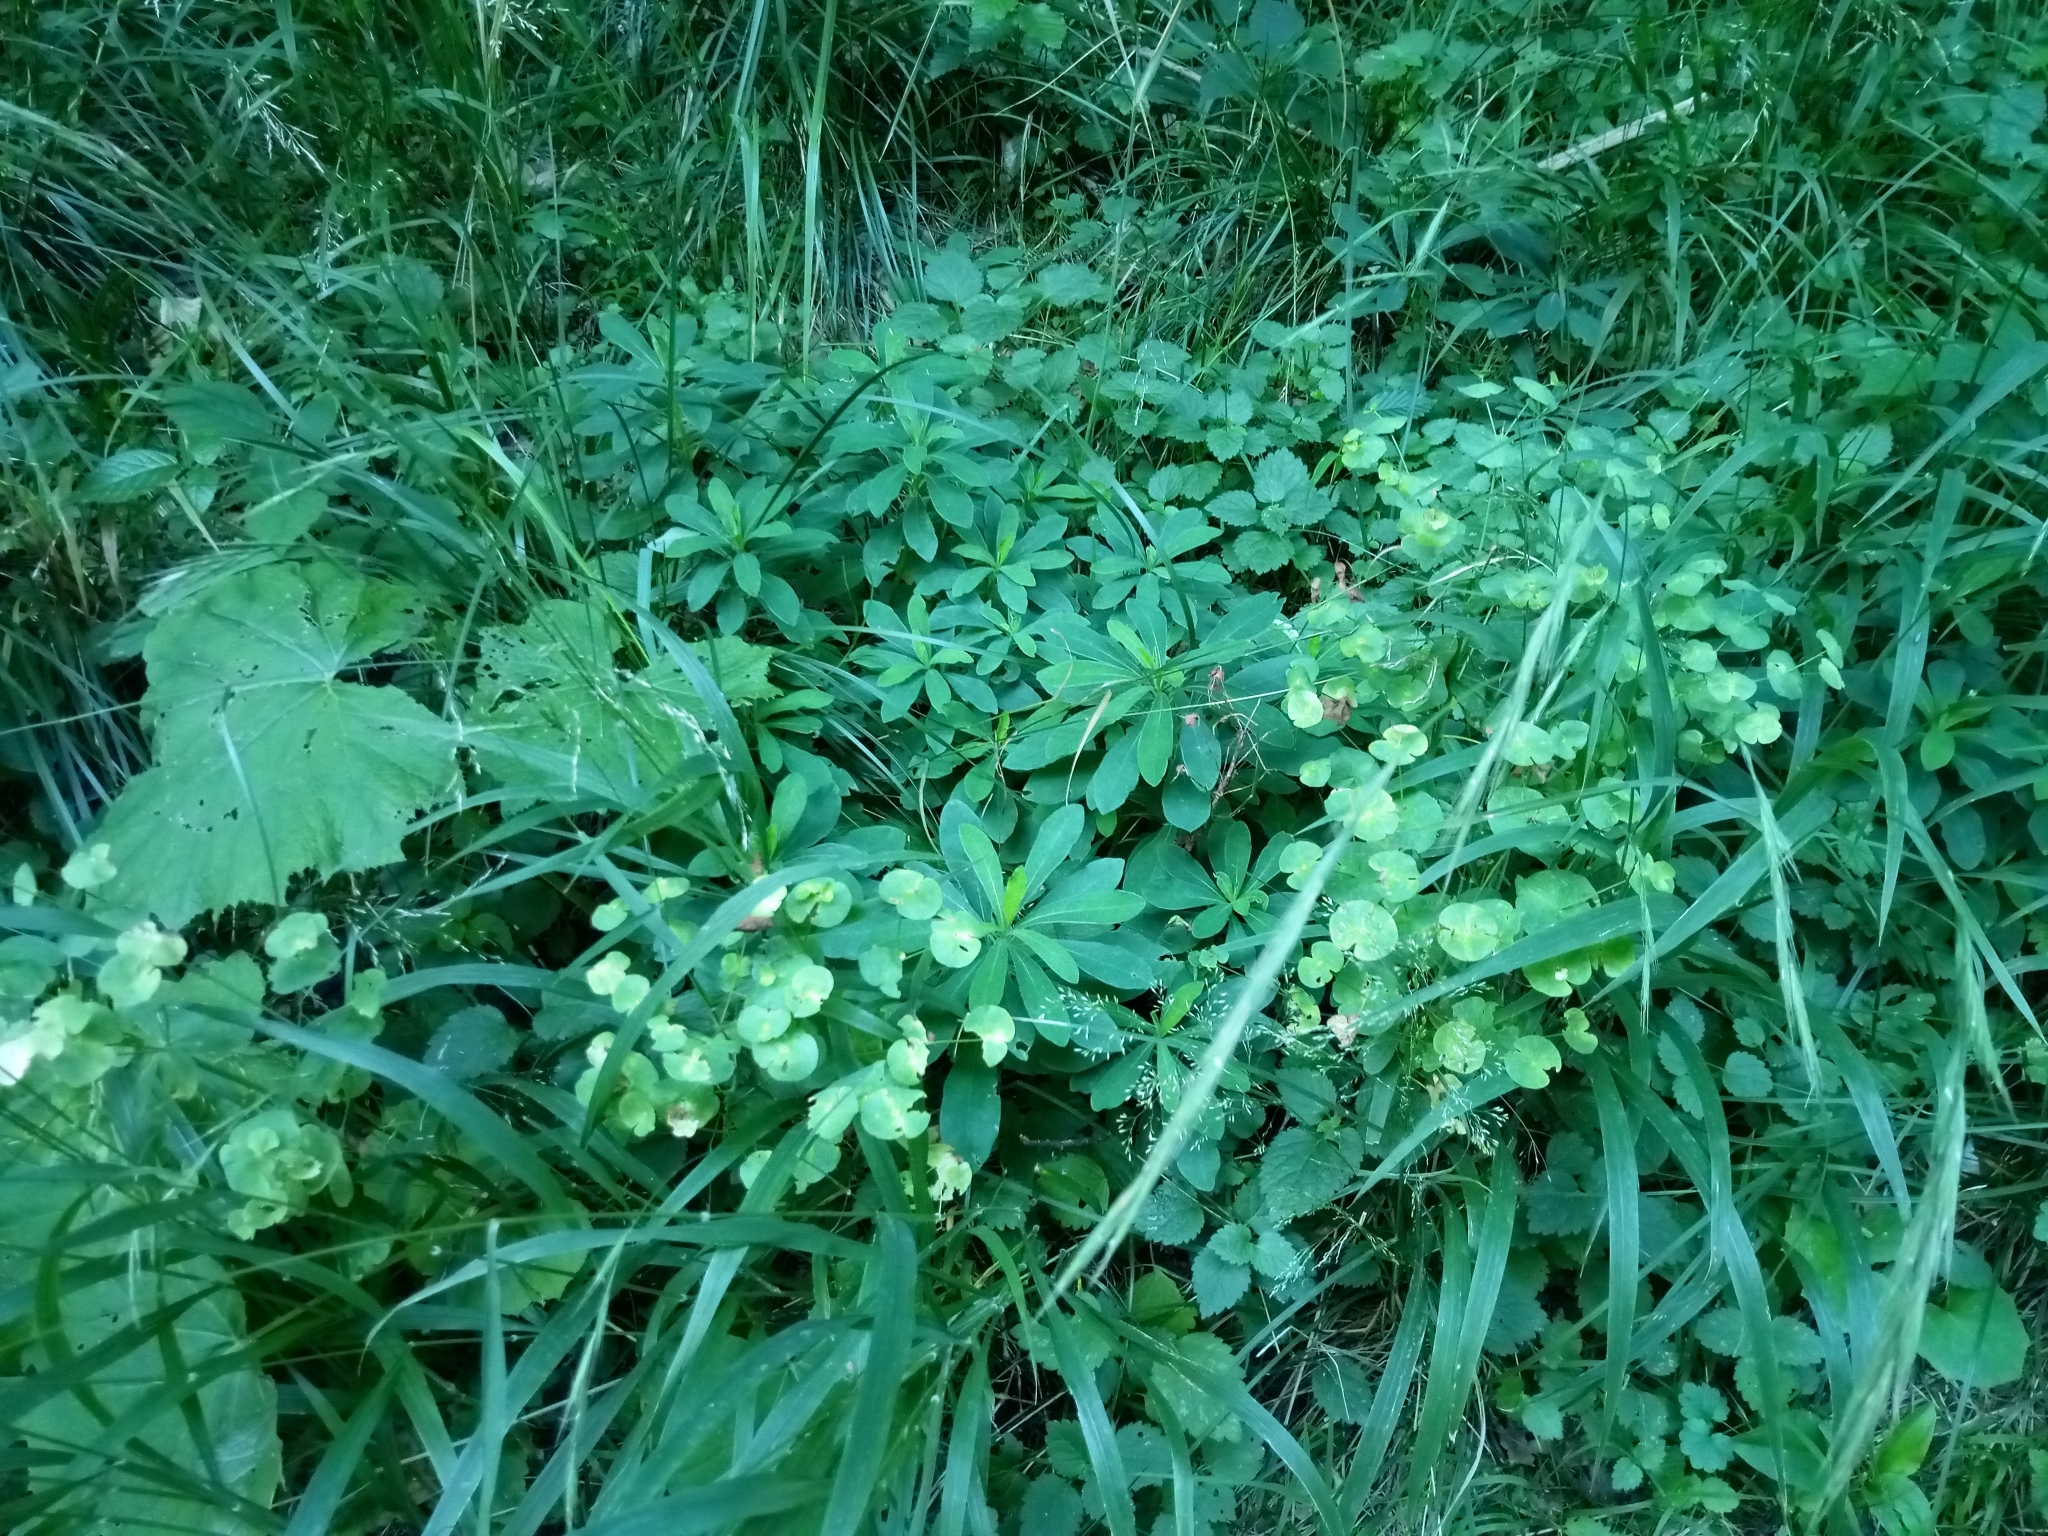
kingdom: Plantae
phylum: Tracheophyta
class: Magnoliopsida
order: Malpighiales
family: Euphorbiaceae
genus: Euphorbia
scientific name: Euphorbia amygdaloides
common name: Wood spurge
